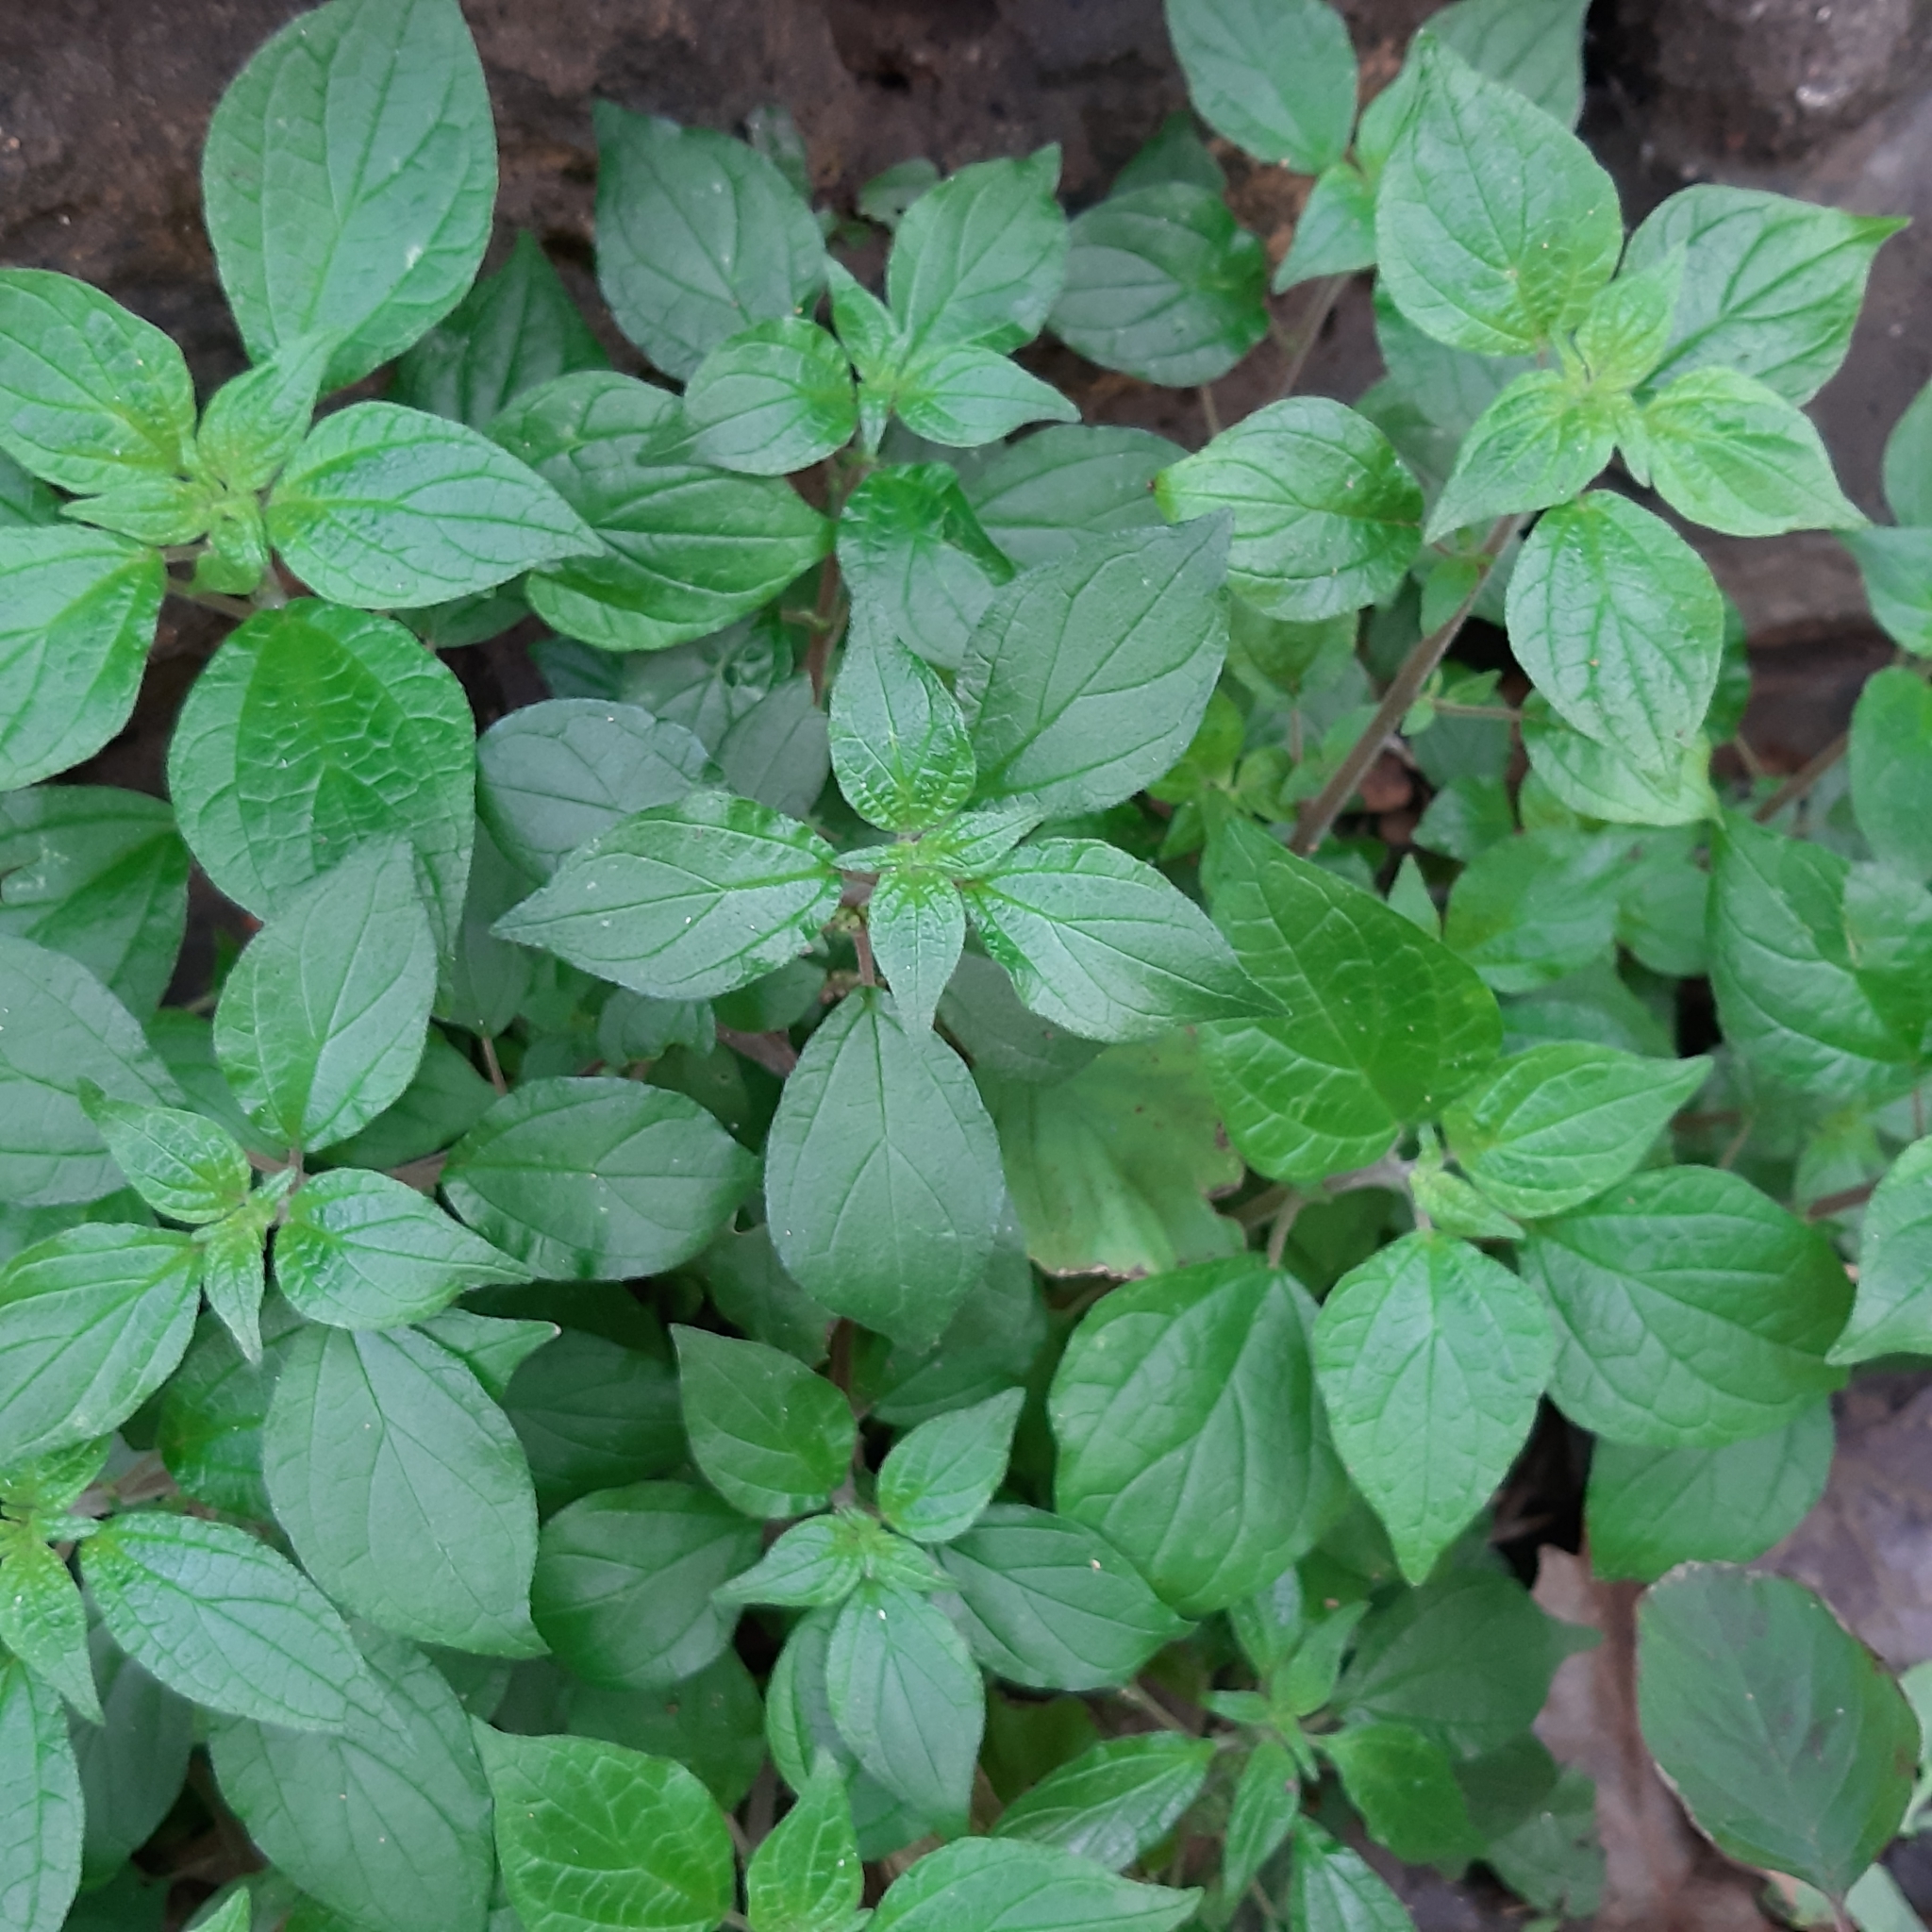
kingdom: Plantae
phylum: Tracheophyta
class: Magnoliopsida
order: Rosales
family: Urticaceae
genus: Parietaria
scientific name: Parietaria judaica
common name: Pellitory-of-the-wall
